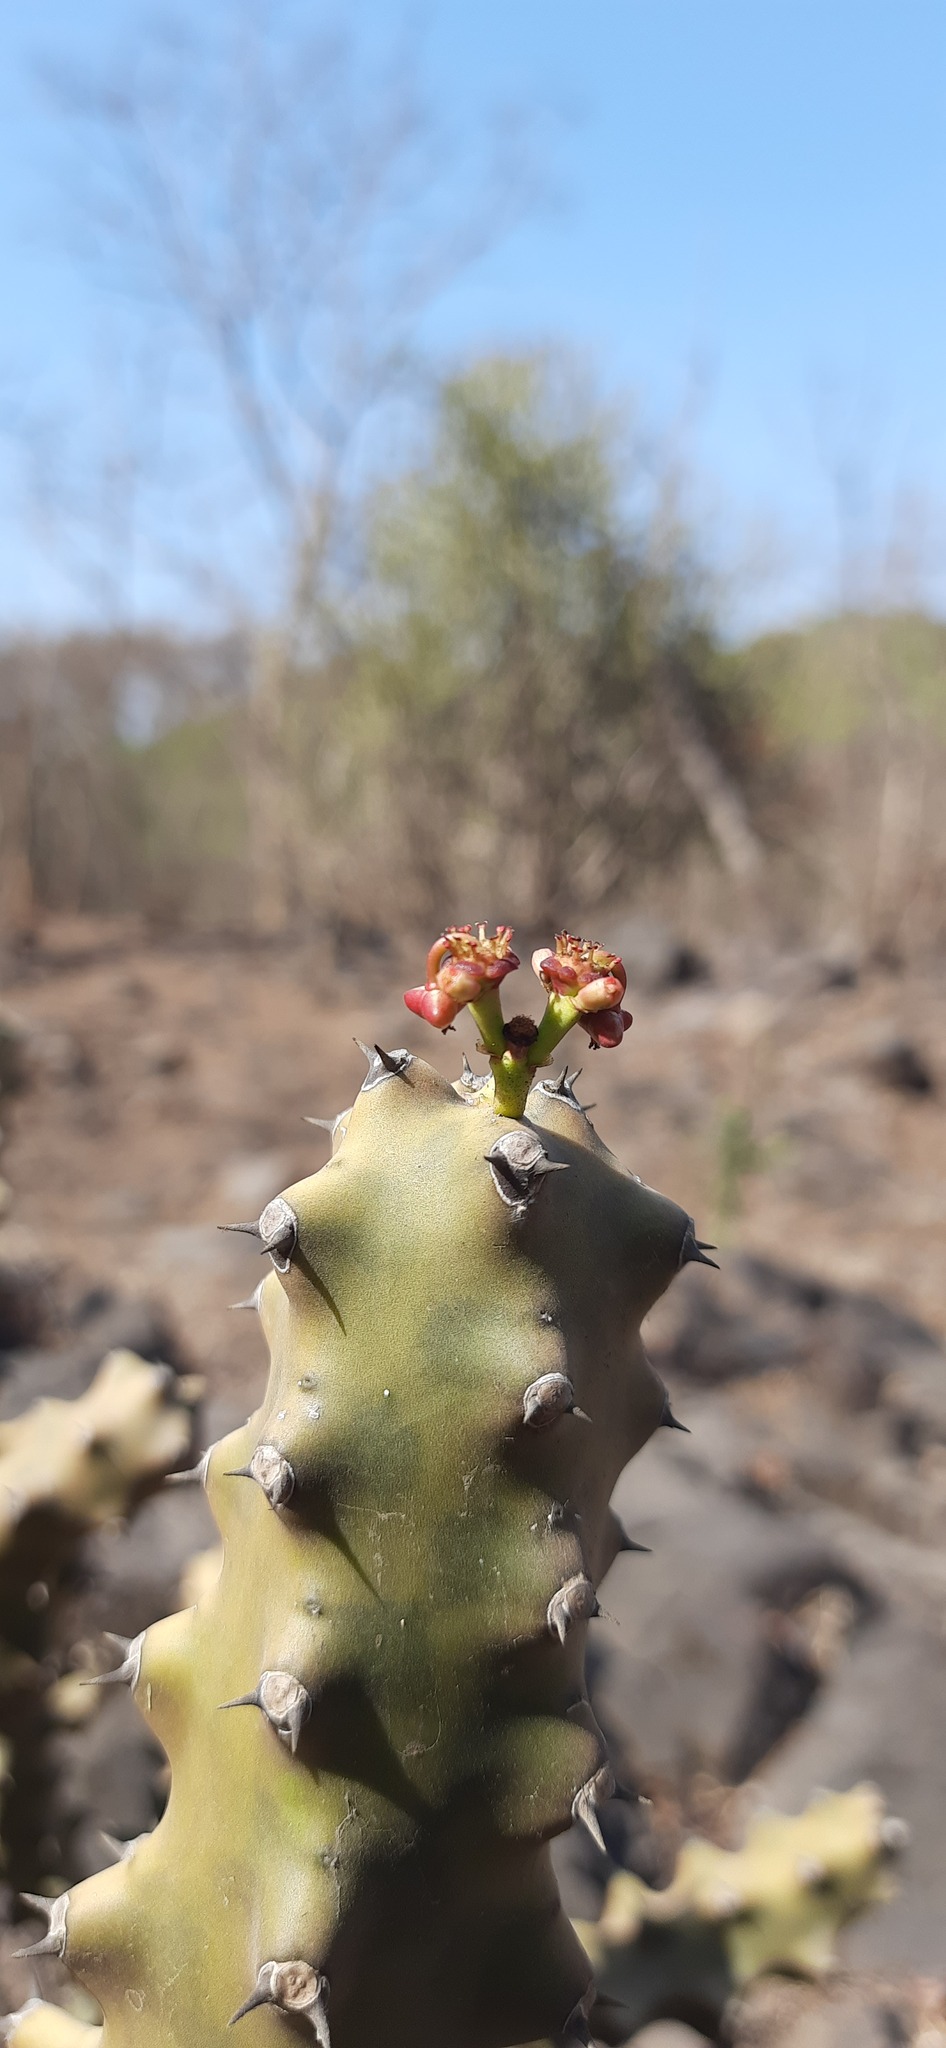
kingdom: Plantae
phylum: Tracheophyta
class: Magnoliopsida
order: Malpighiales
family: Euphorbiaceae
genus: Euphorbia
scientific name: Euphorbia caducifolia
